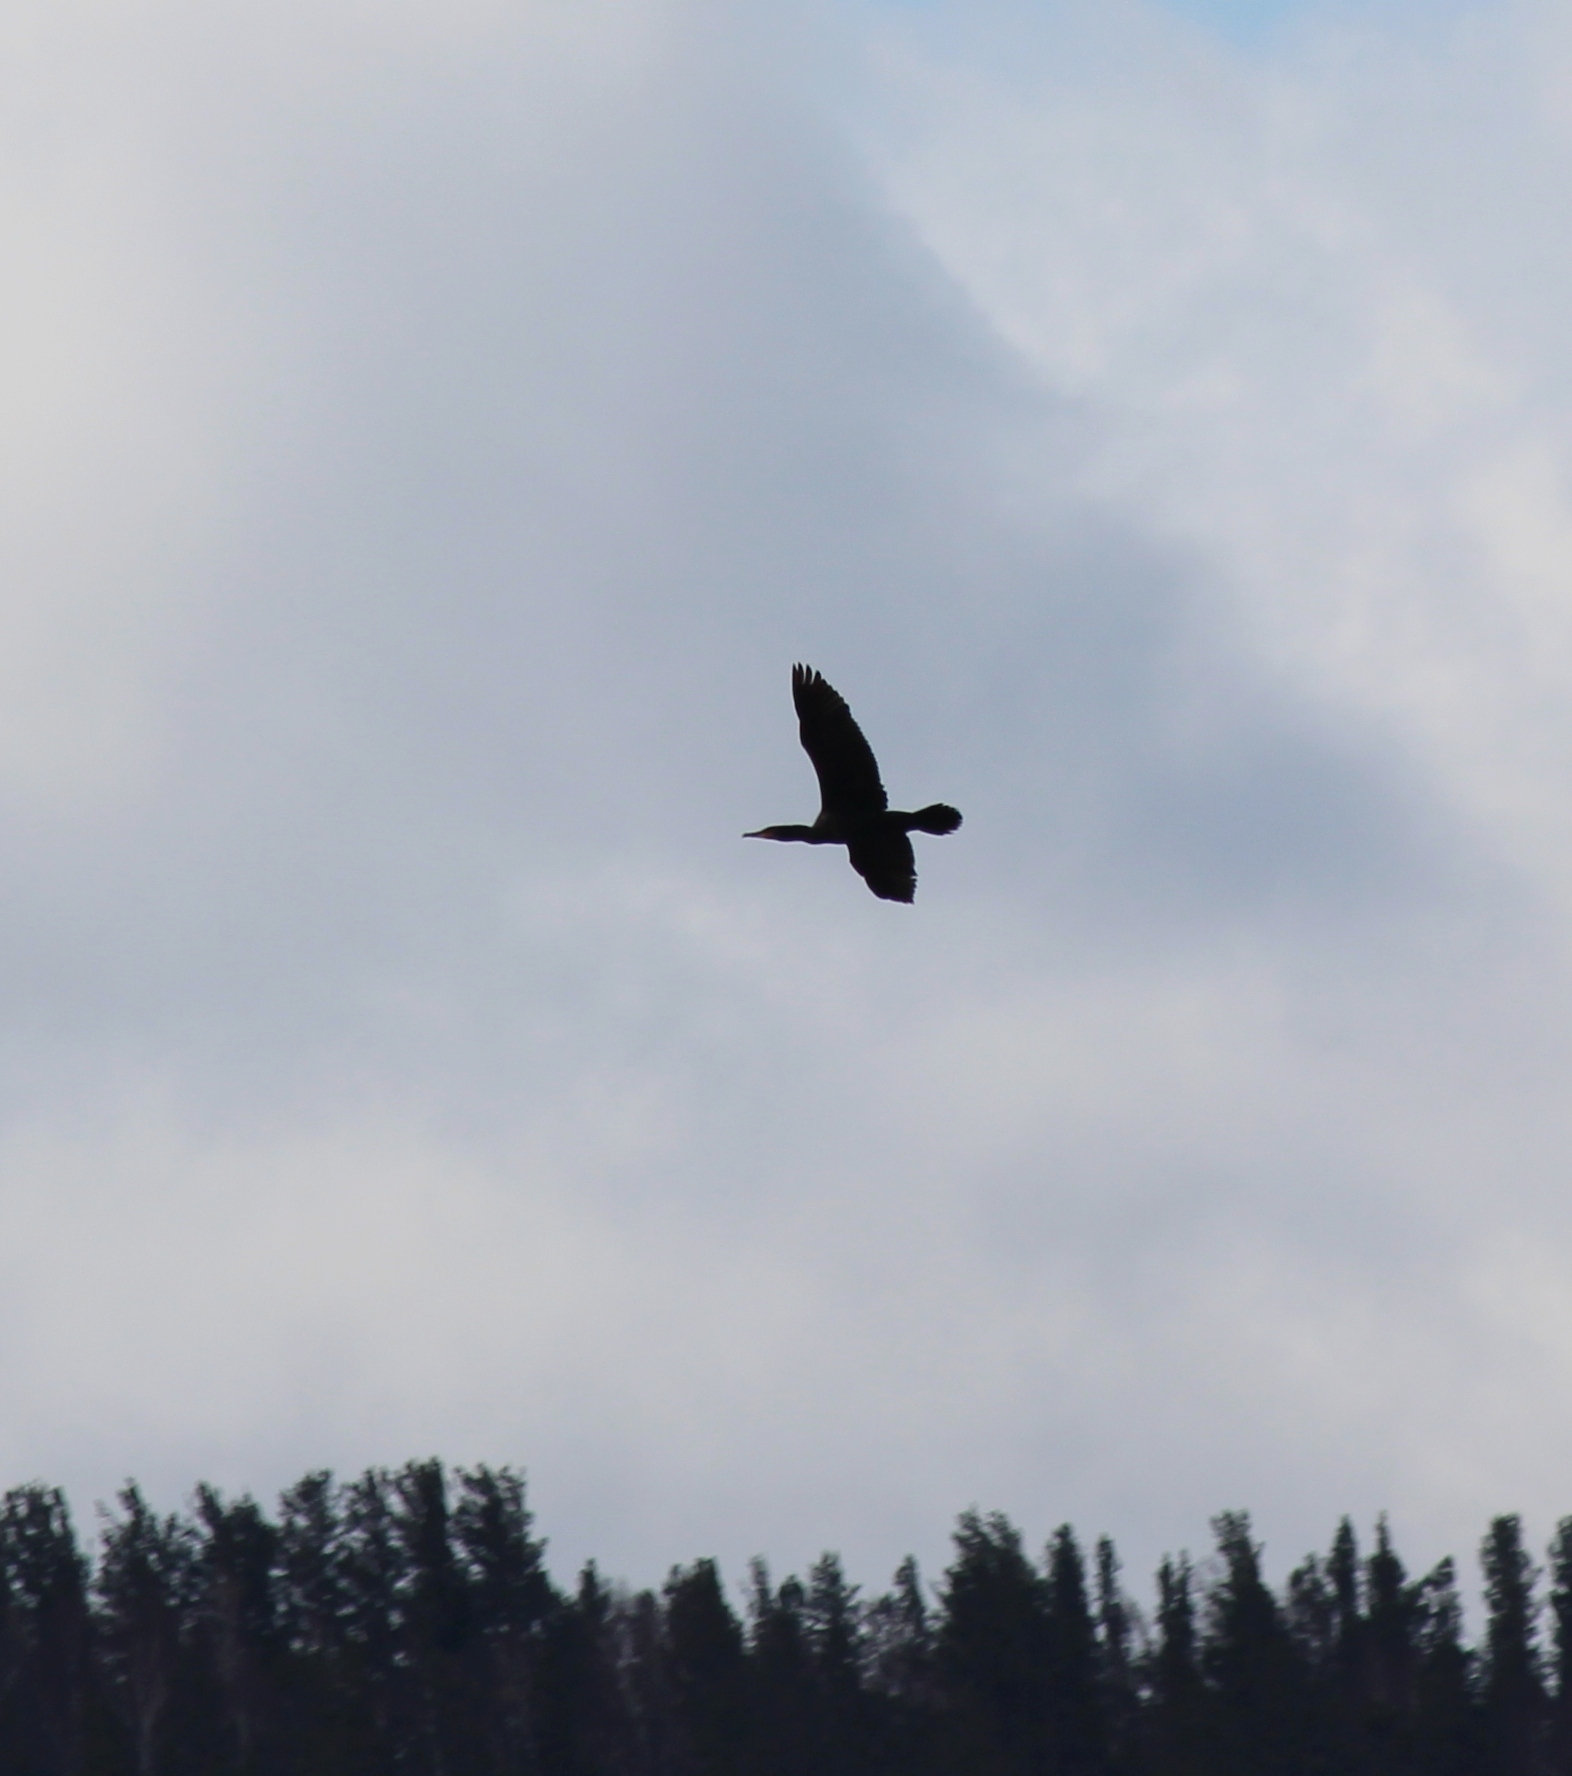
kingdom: Animalia
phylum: Chordata
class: Aves
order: Suliformes
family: Phalacrocoracidae
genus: Phalacrocorax
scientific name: Phalacrocorax carbo
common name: Great cormorant
